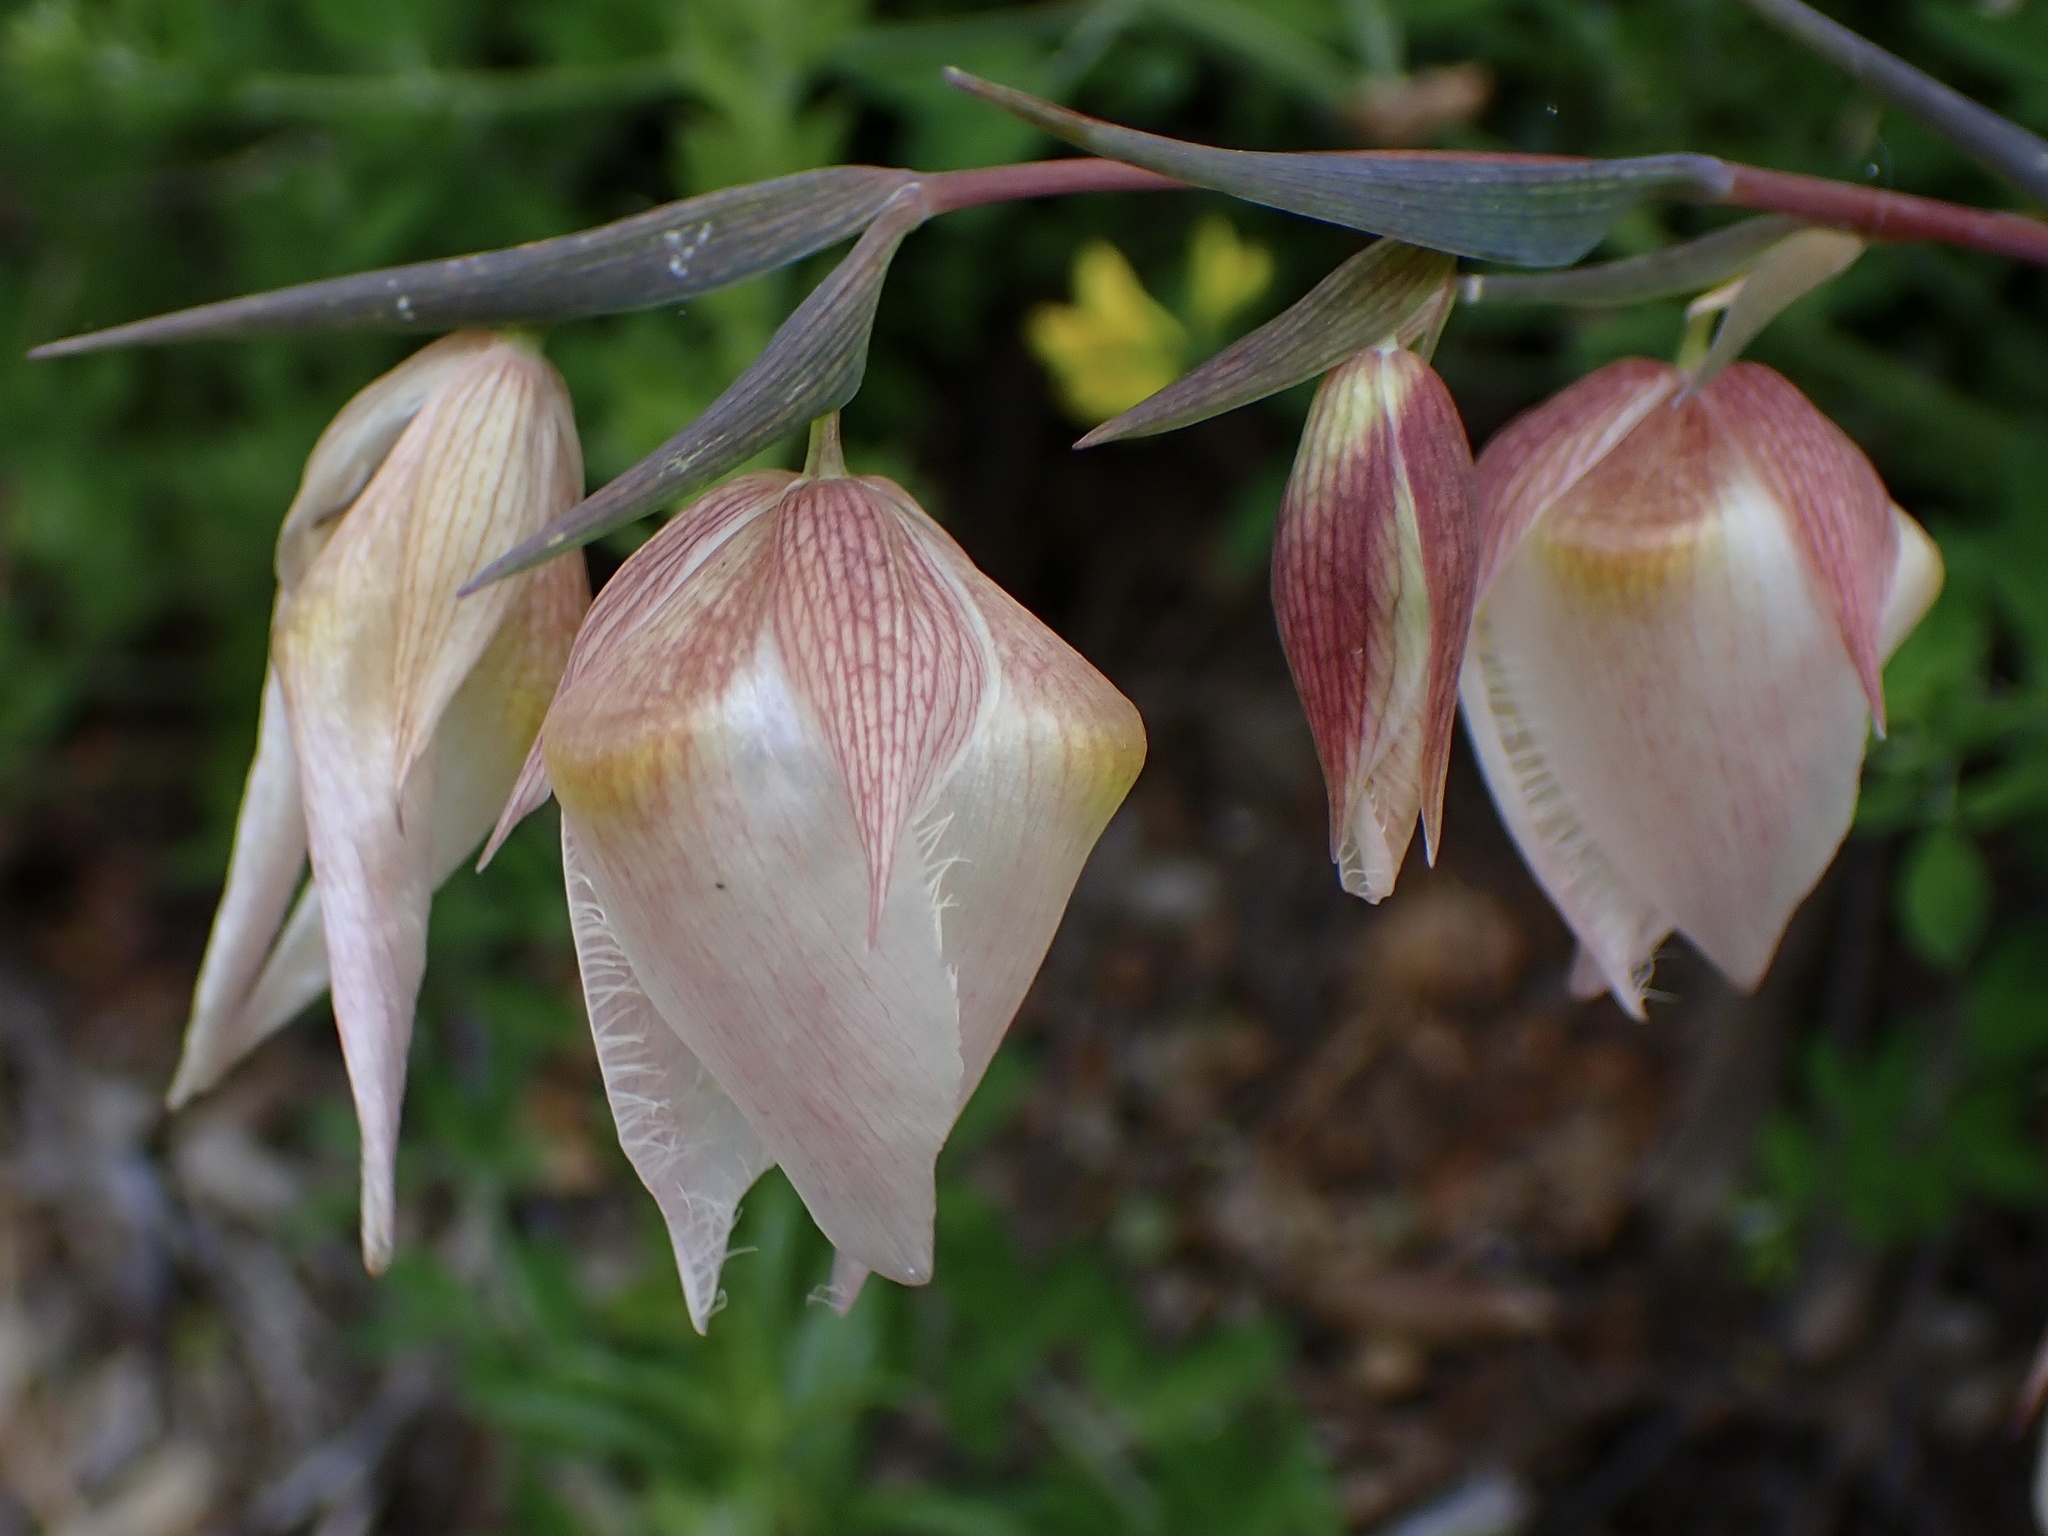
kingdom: Plantae
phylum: Tracheophyta
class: Liliopsida
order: Liliales
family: Liliaceae
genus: Calochortus
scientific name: Calochortus albus
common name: Fairy-lantern
